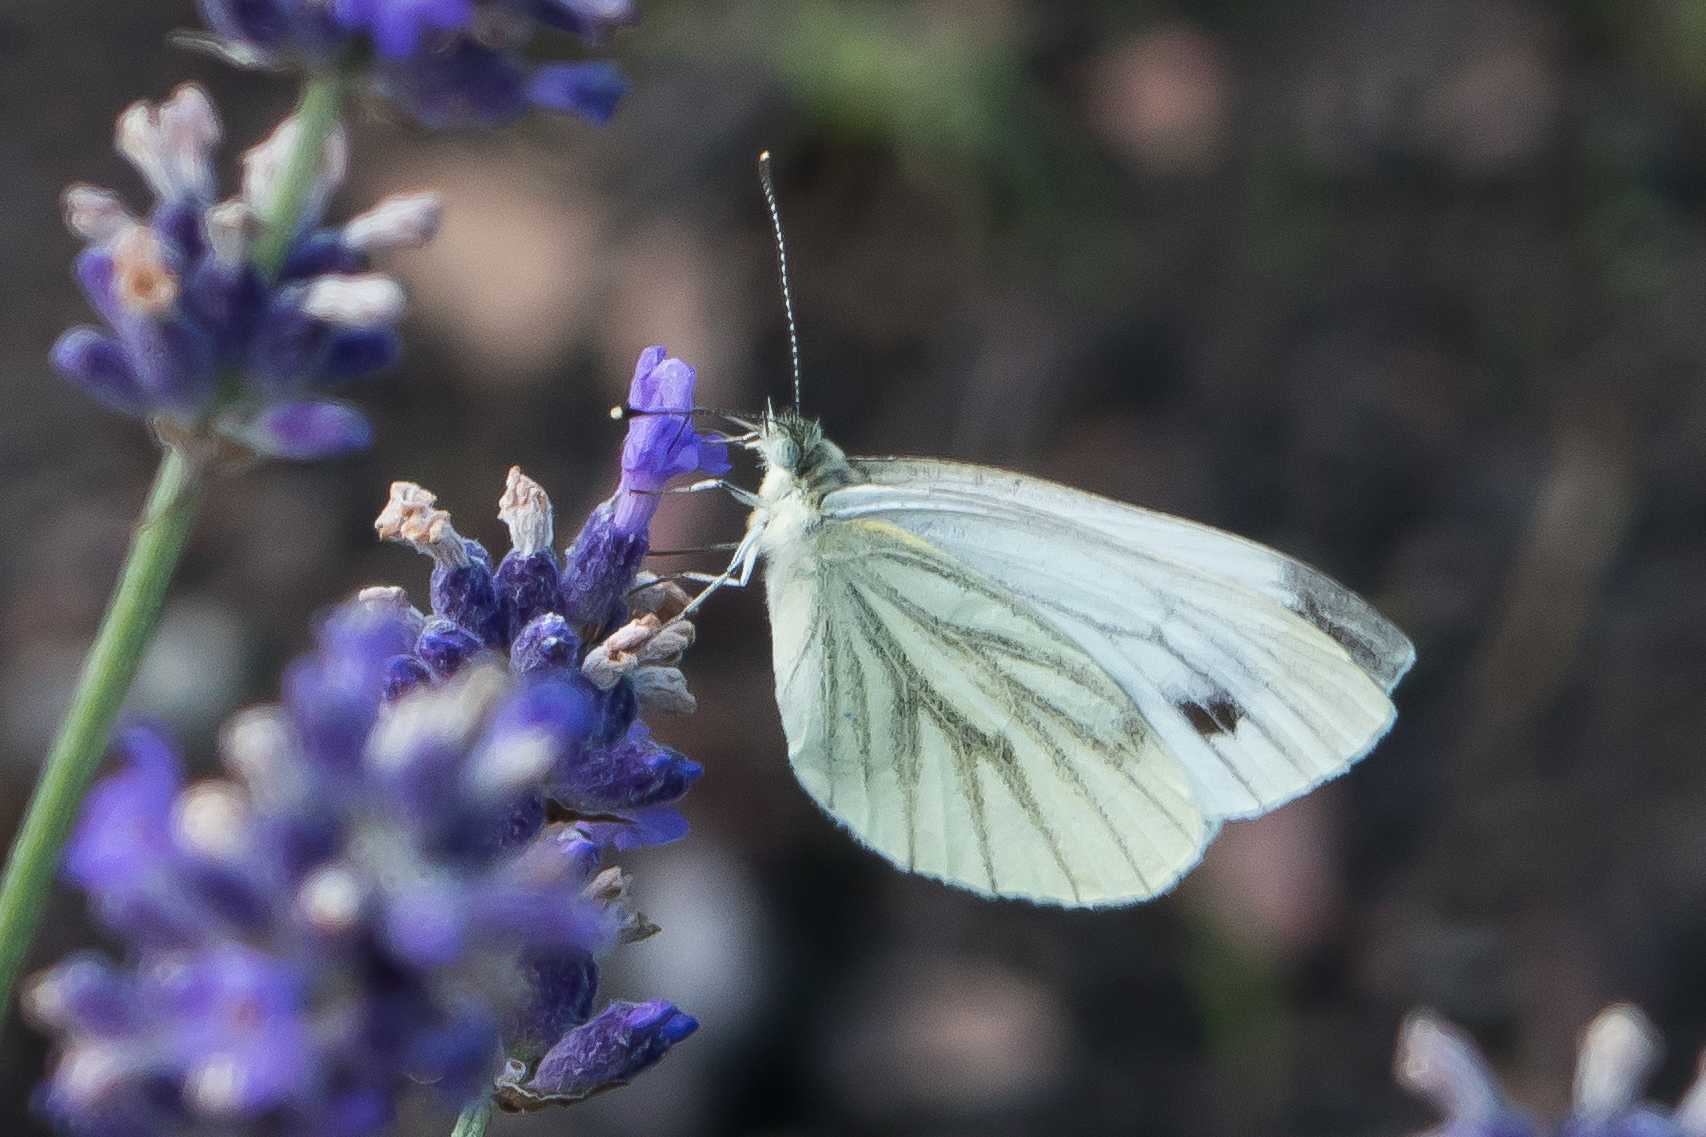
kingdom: Animalia
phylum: Arthropoda
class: Insecta
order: Lepidoptera
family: Pieridae
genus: Pieris
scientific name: Pieris napi
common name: Green-veined white
